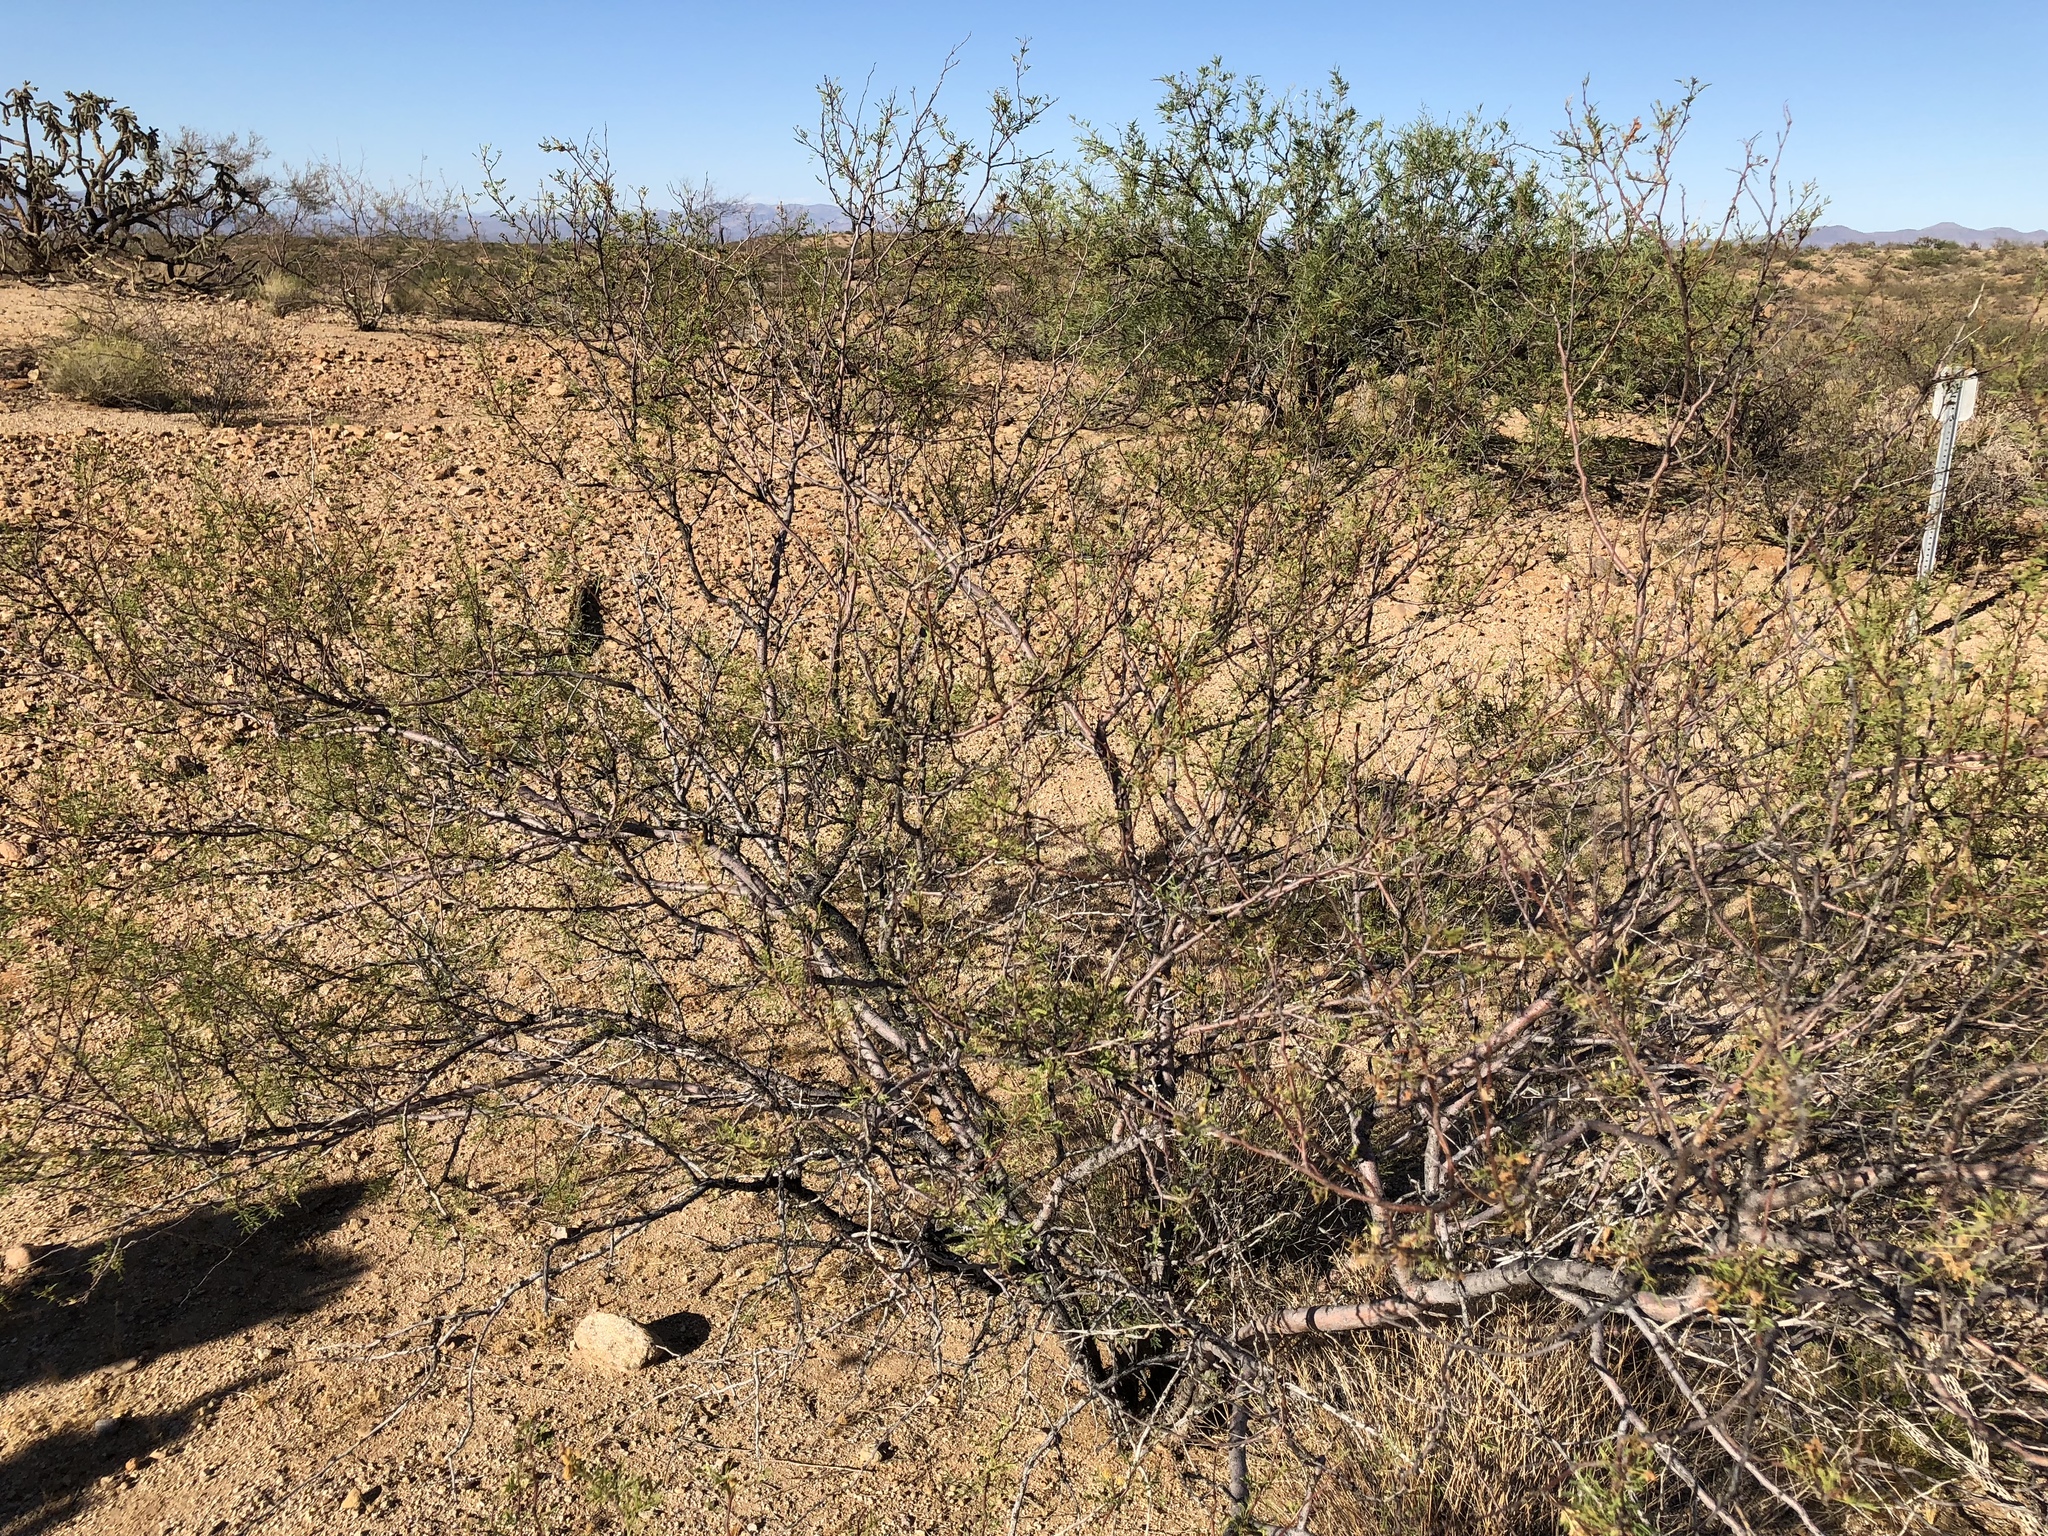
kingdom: Plantae
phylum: Tracheophyta
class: Magnoliopsida
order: Fabales
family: Fabaceae
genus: Vachellia
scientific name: Vachellia constricta
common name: Mescat acacia
